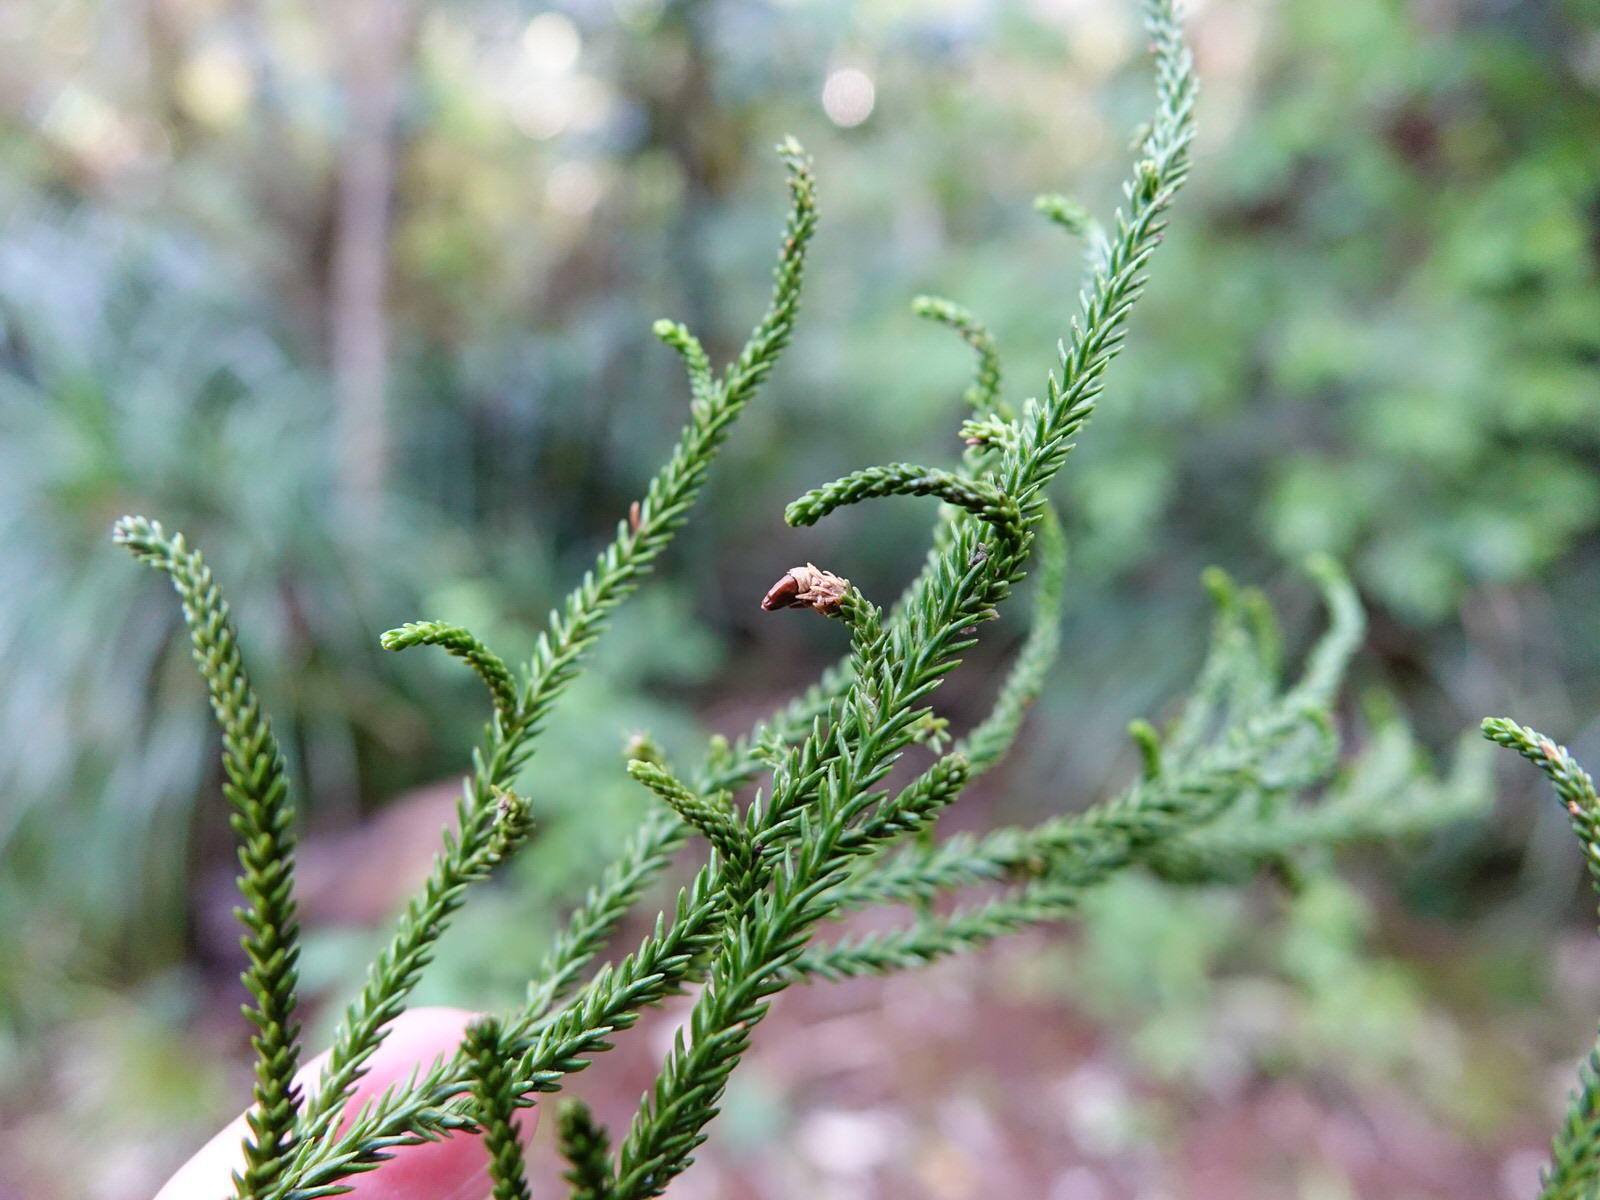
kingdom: Plantae
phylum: Tracheophyta
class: Pinopsida
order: Pinales
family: Podocarpaceae
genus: Dacrydium
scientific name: Dacrydium cupressinum
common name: Red pine
